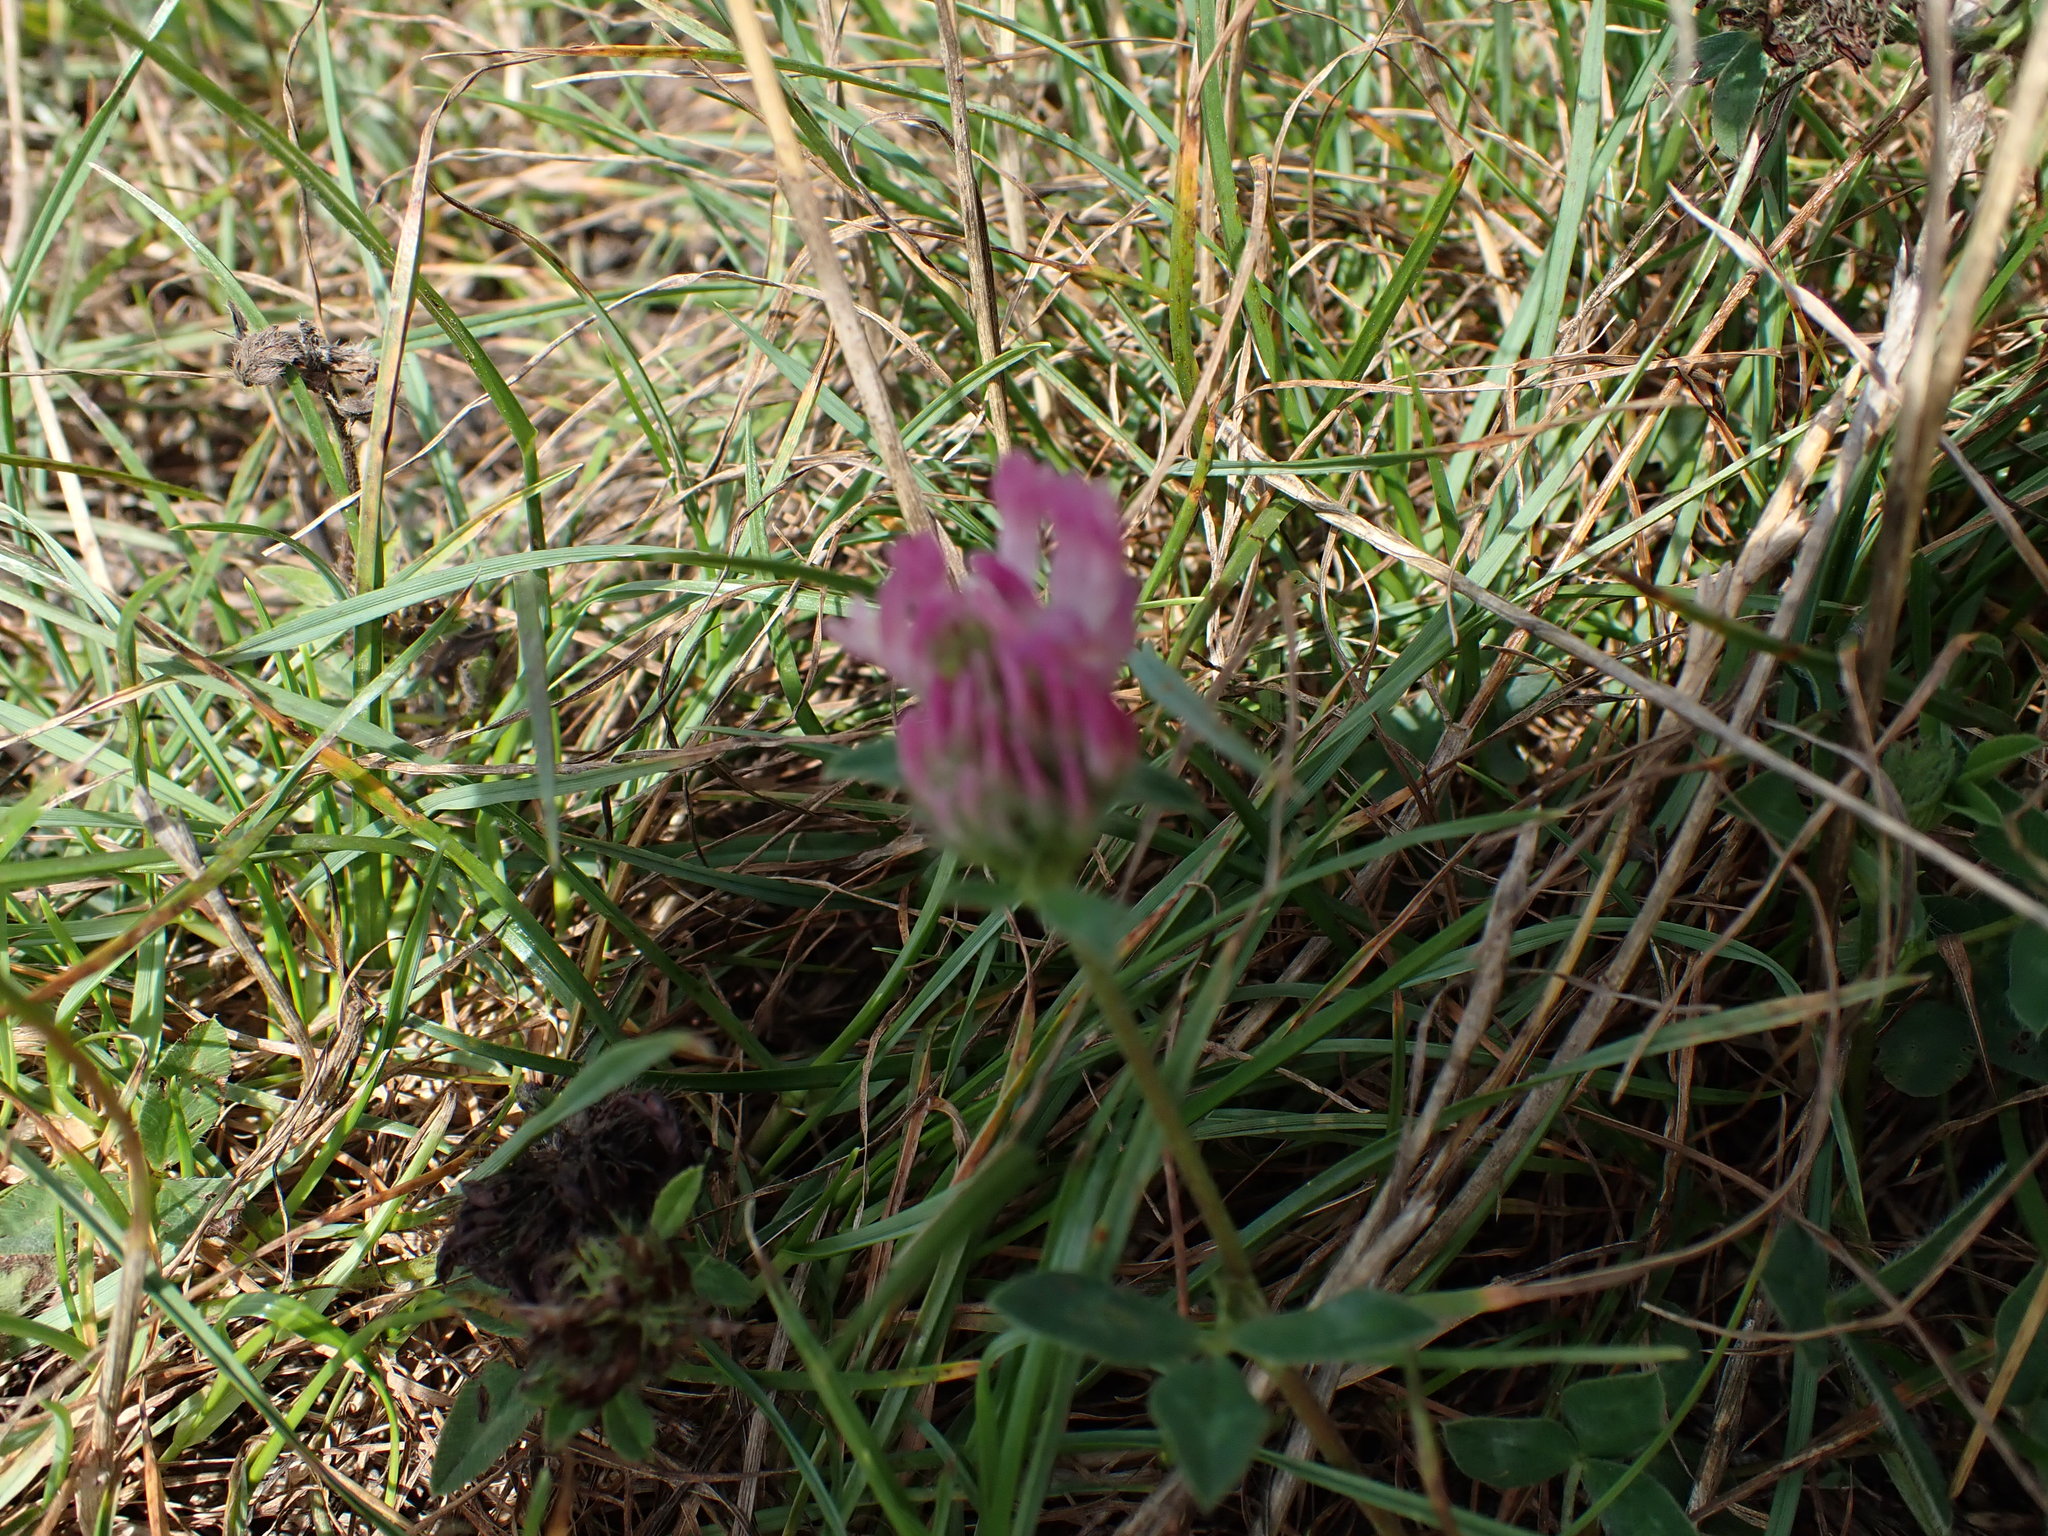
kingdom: Plantae
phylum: Tracheophyta
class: Magnoliopsida
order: Fabales
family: Fabaceae
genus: Trifolium
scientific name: Trifolium pratense
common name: Red clover
